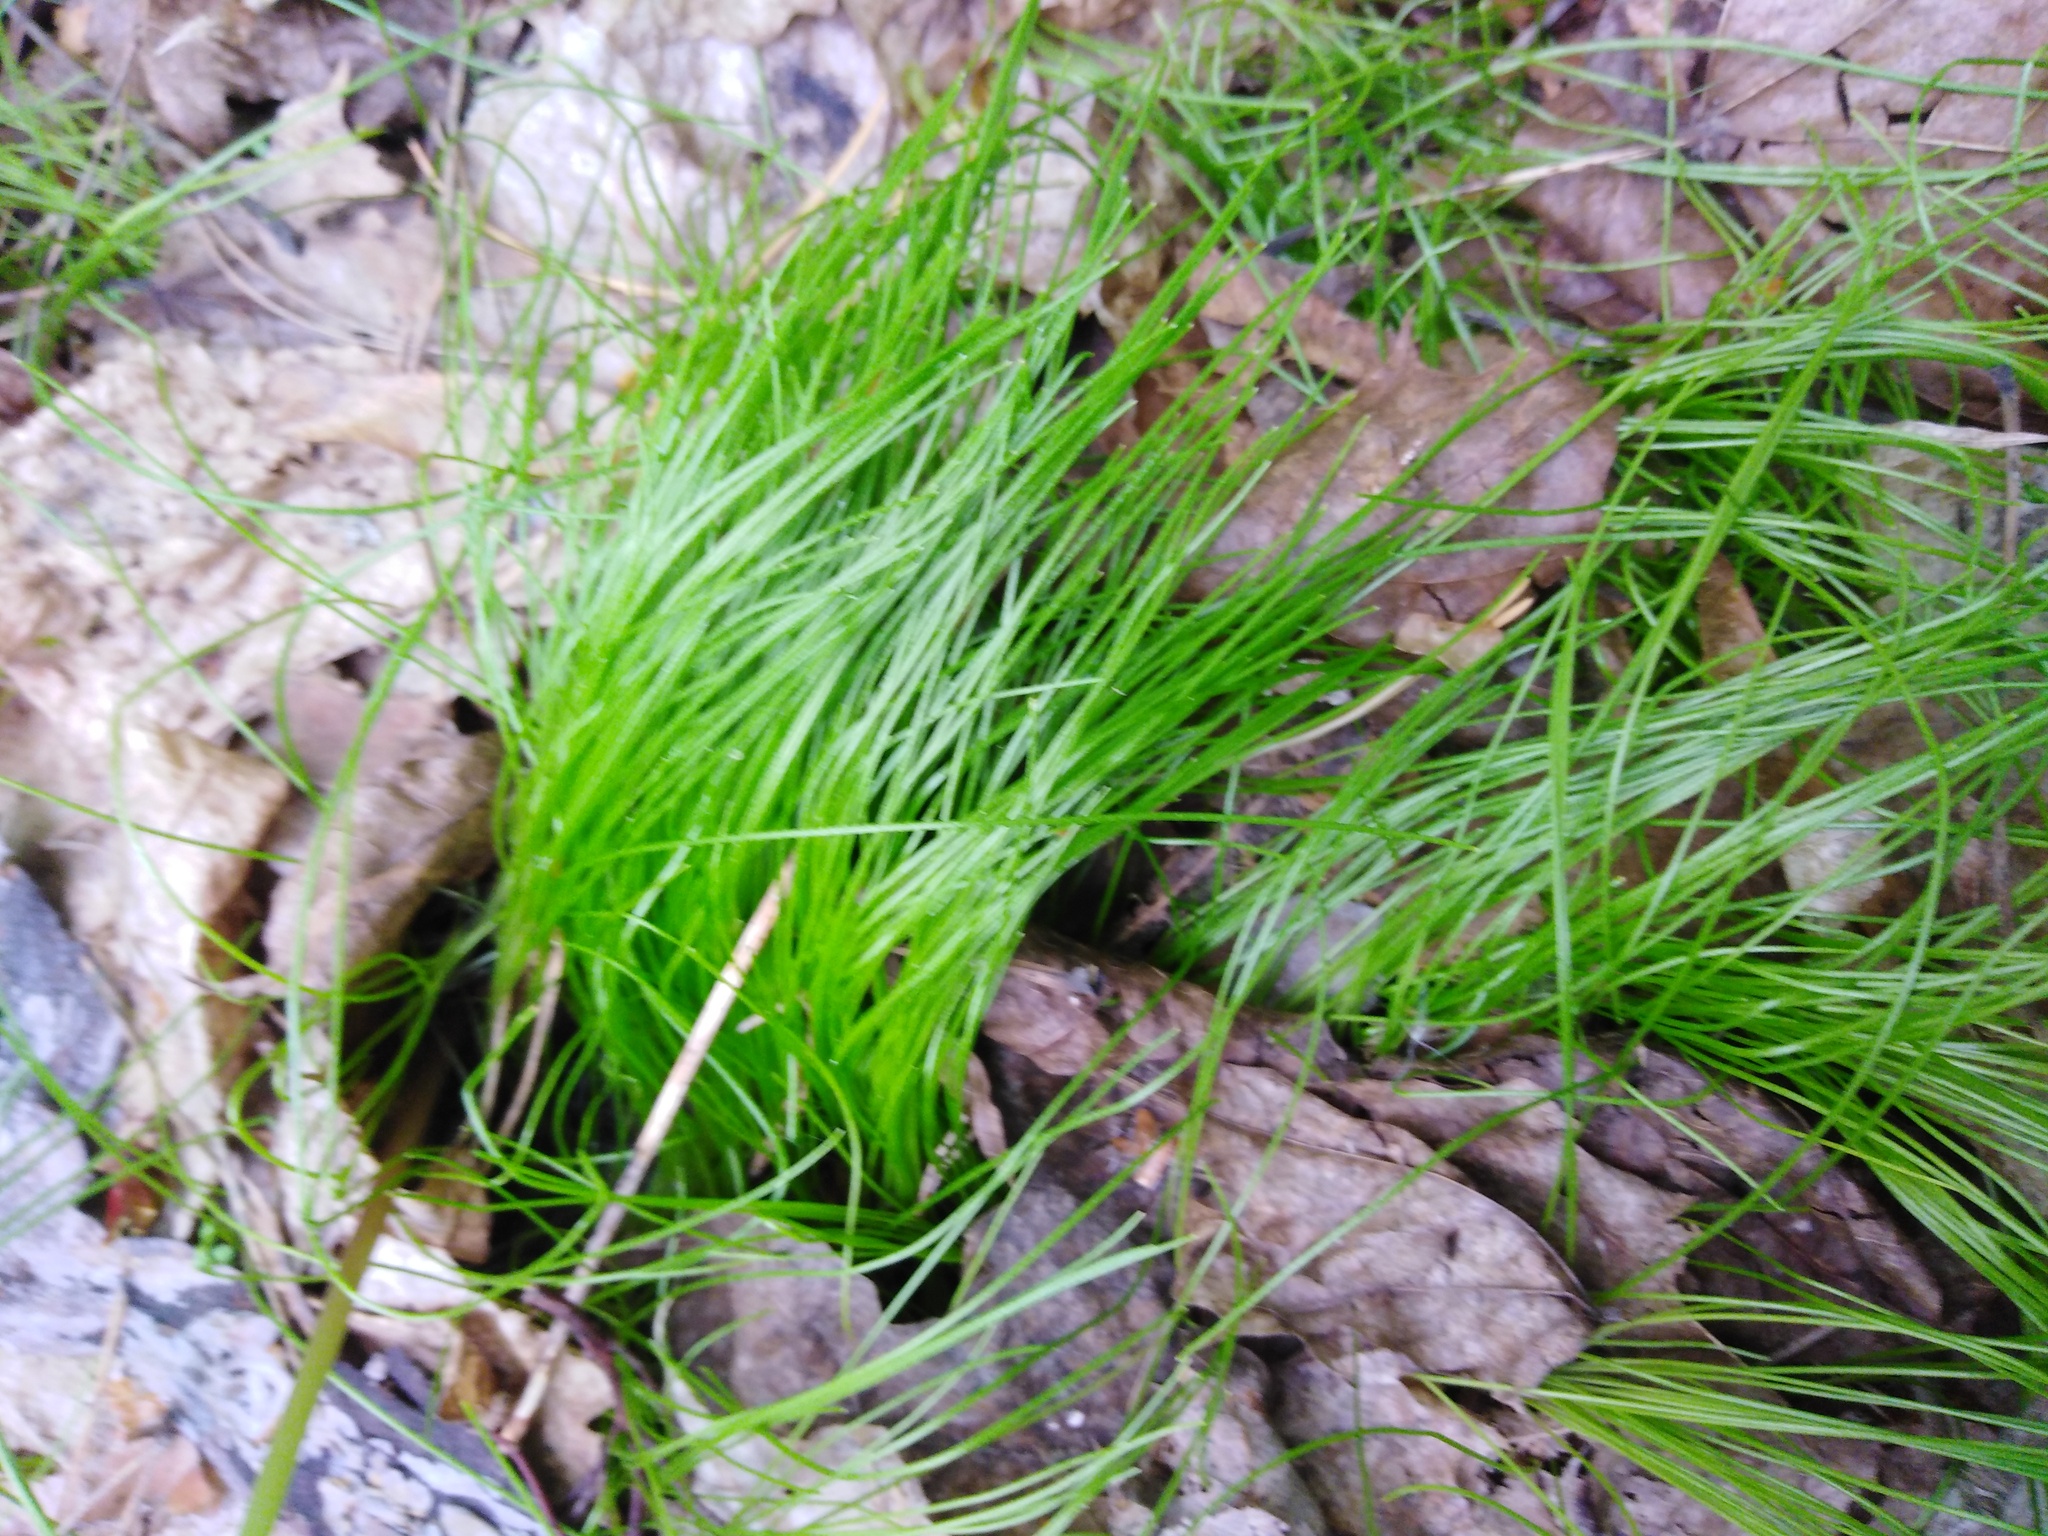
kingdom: Plantae
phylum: Tracheophyta
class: Liliopsida
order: Liliales
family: Liliaceae
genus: Gagea
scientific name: Gagea minima
